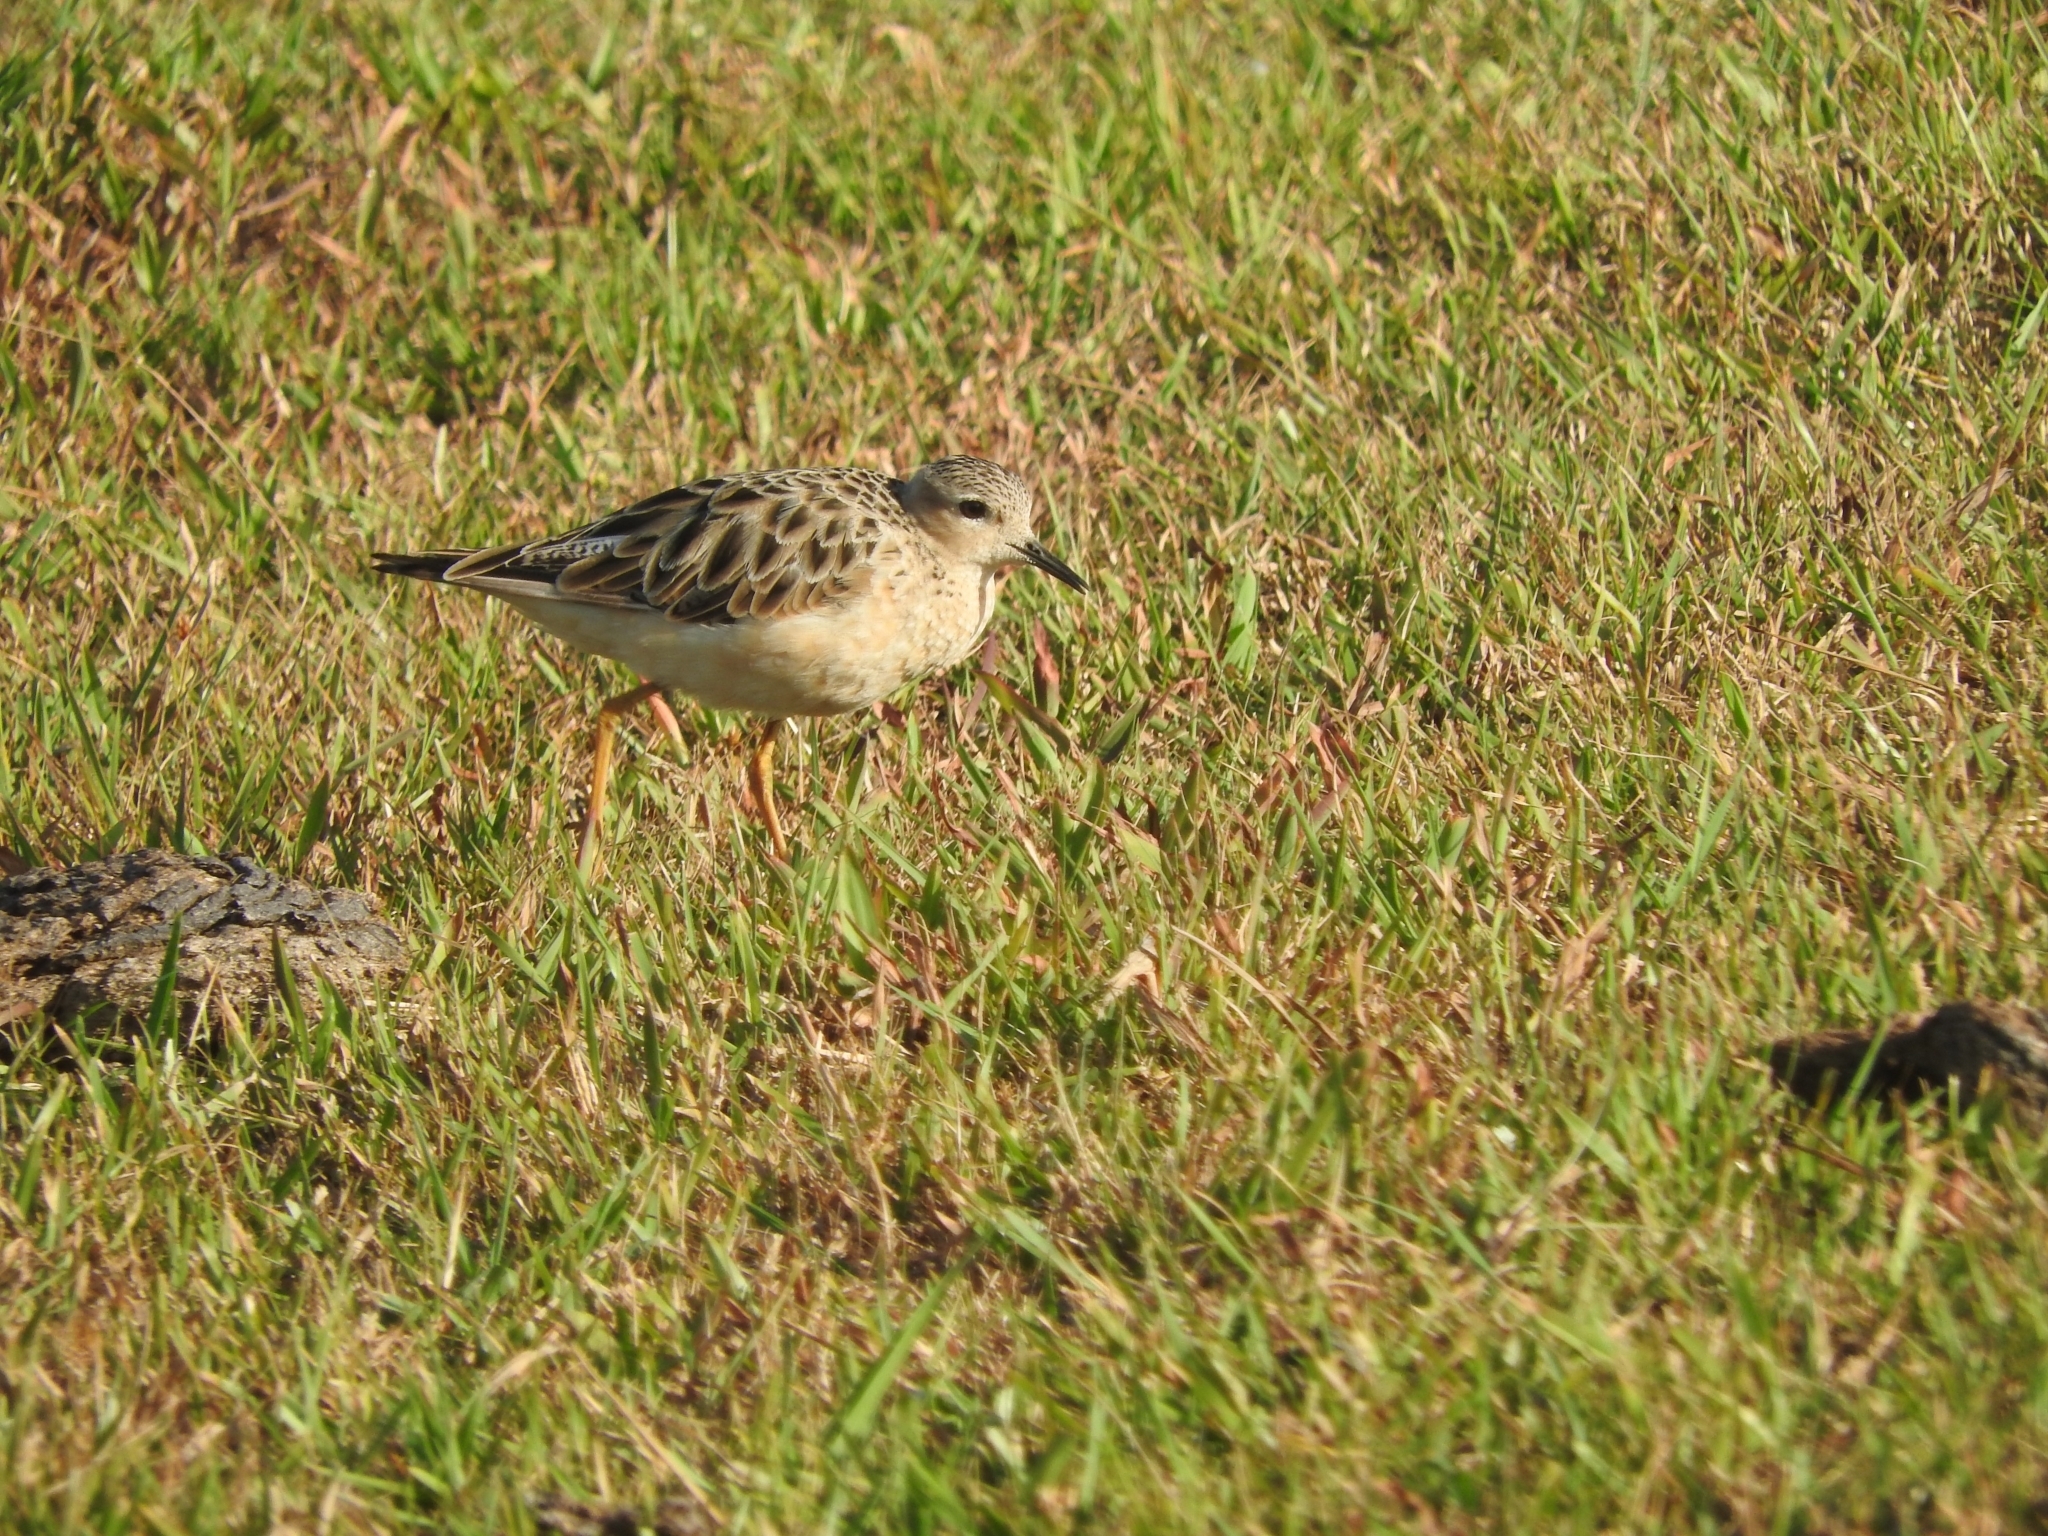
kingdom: Animalia
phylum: Chordata
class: Aves
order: Charadriiformes
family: Scolopacidae
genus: Calidris
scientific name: Calidris subruficollis
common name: Buff-breasted sandpiper
